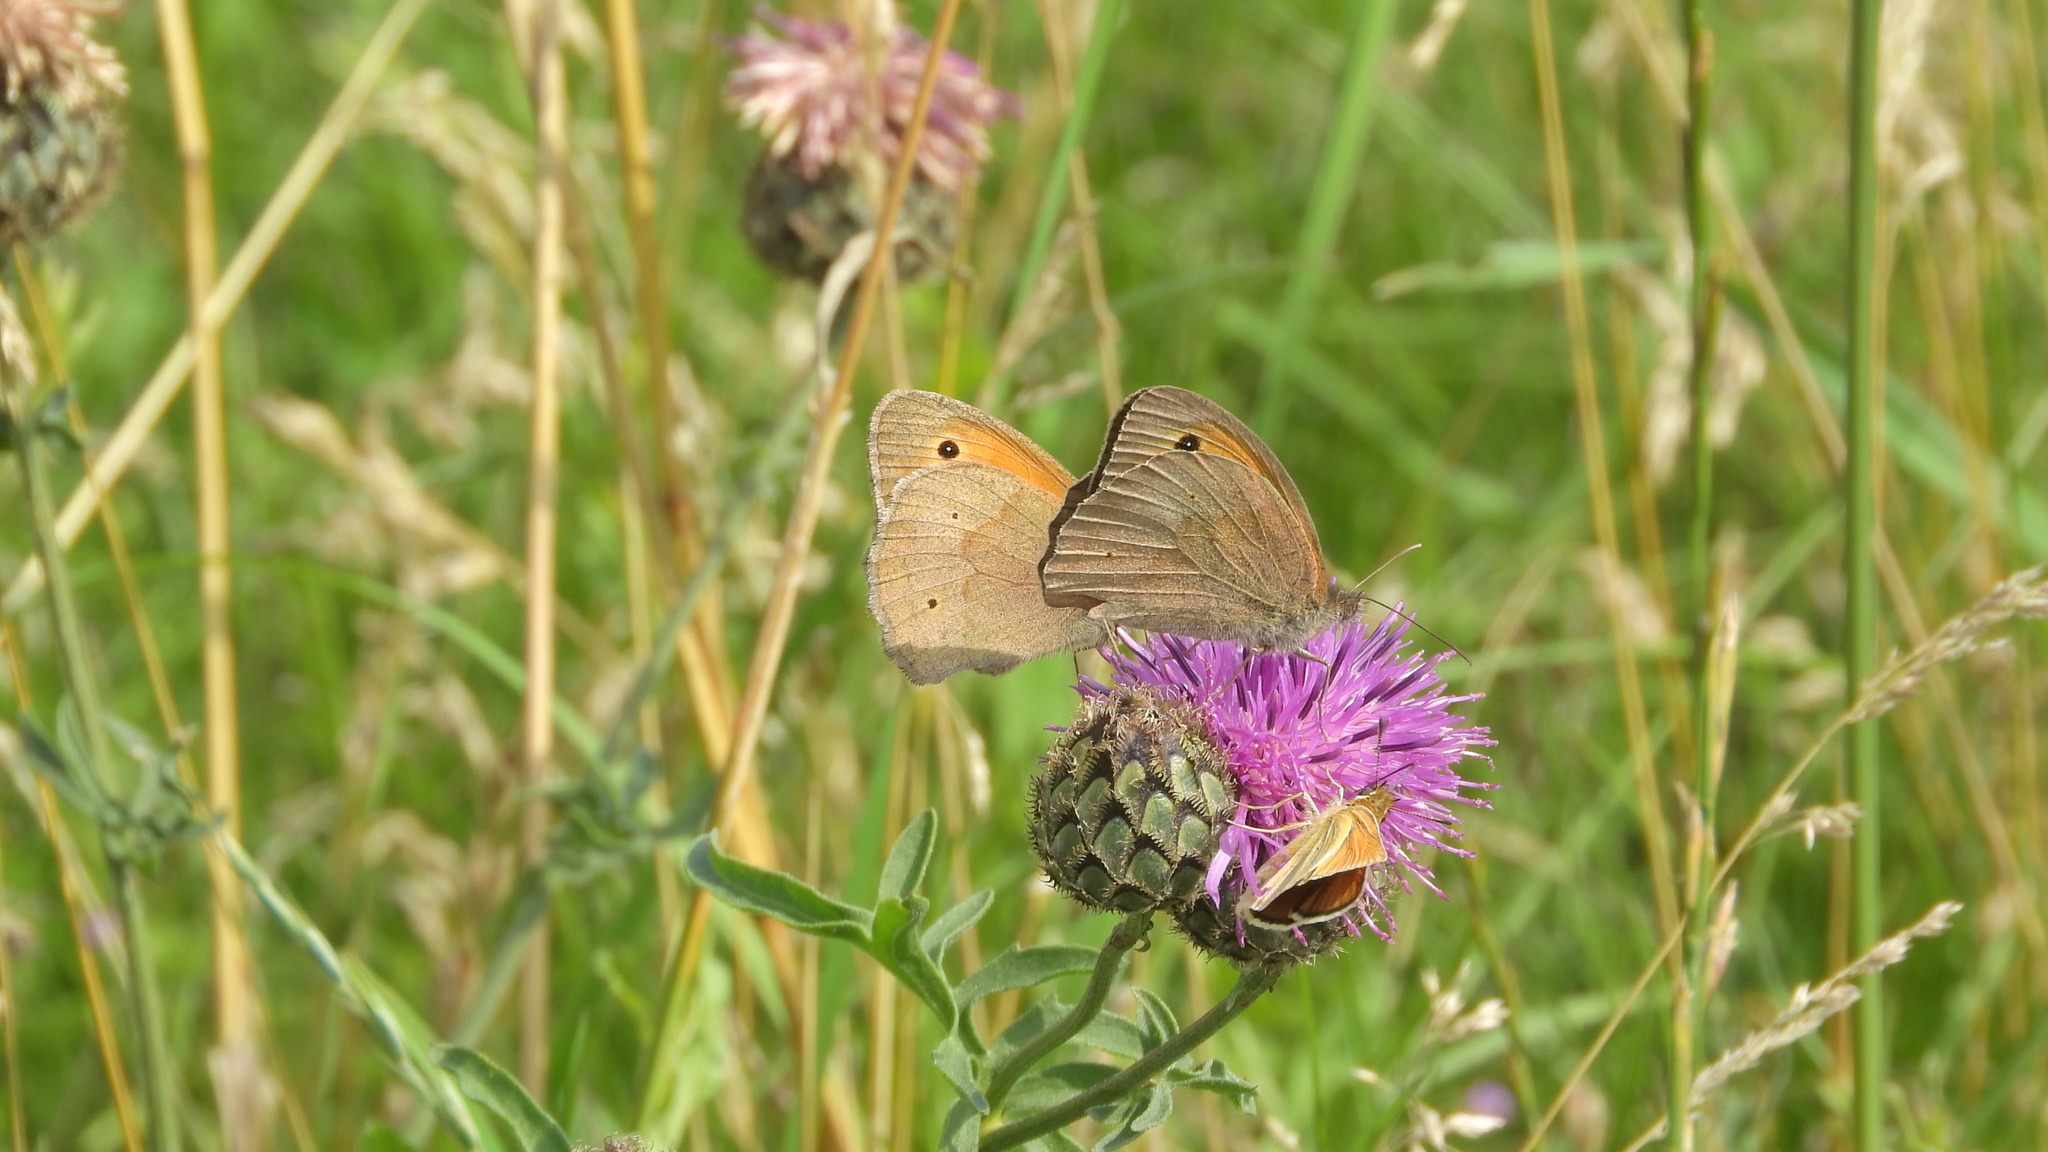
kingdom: Animalia
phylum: Arthropoda
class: Insecta
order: Lepidoptera
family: Nymphalidae
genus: Maniola
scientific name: Maniola jurtina
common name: Meadow brown
